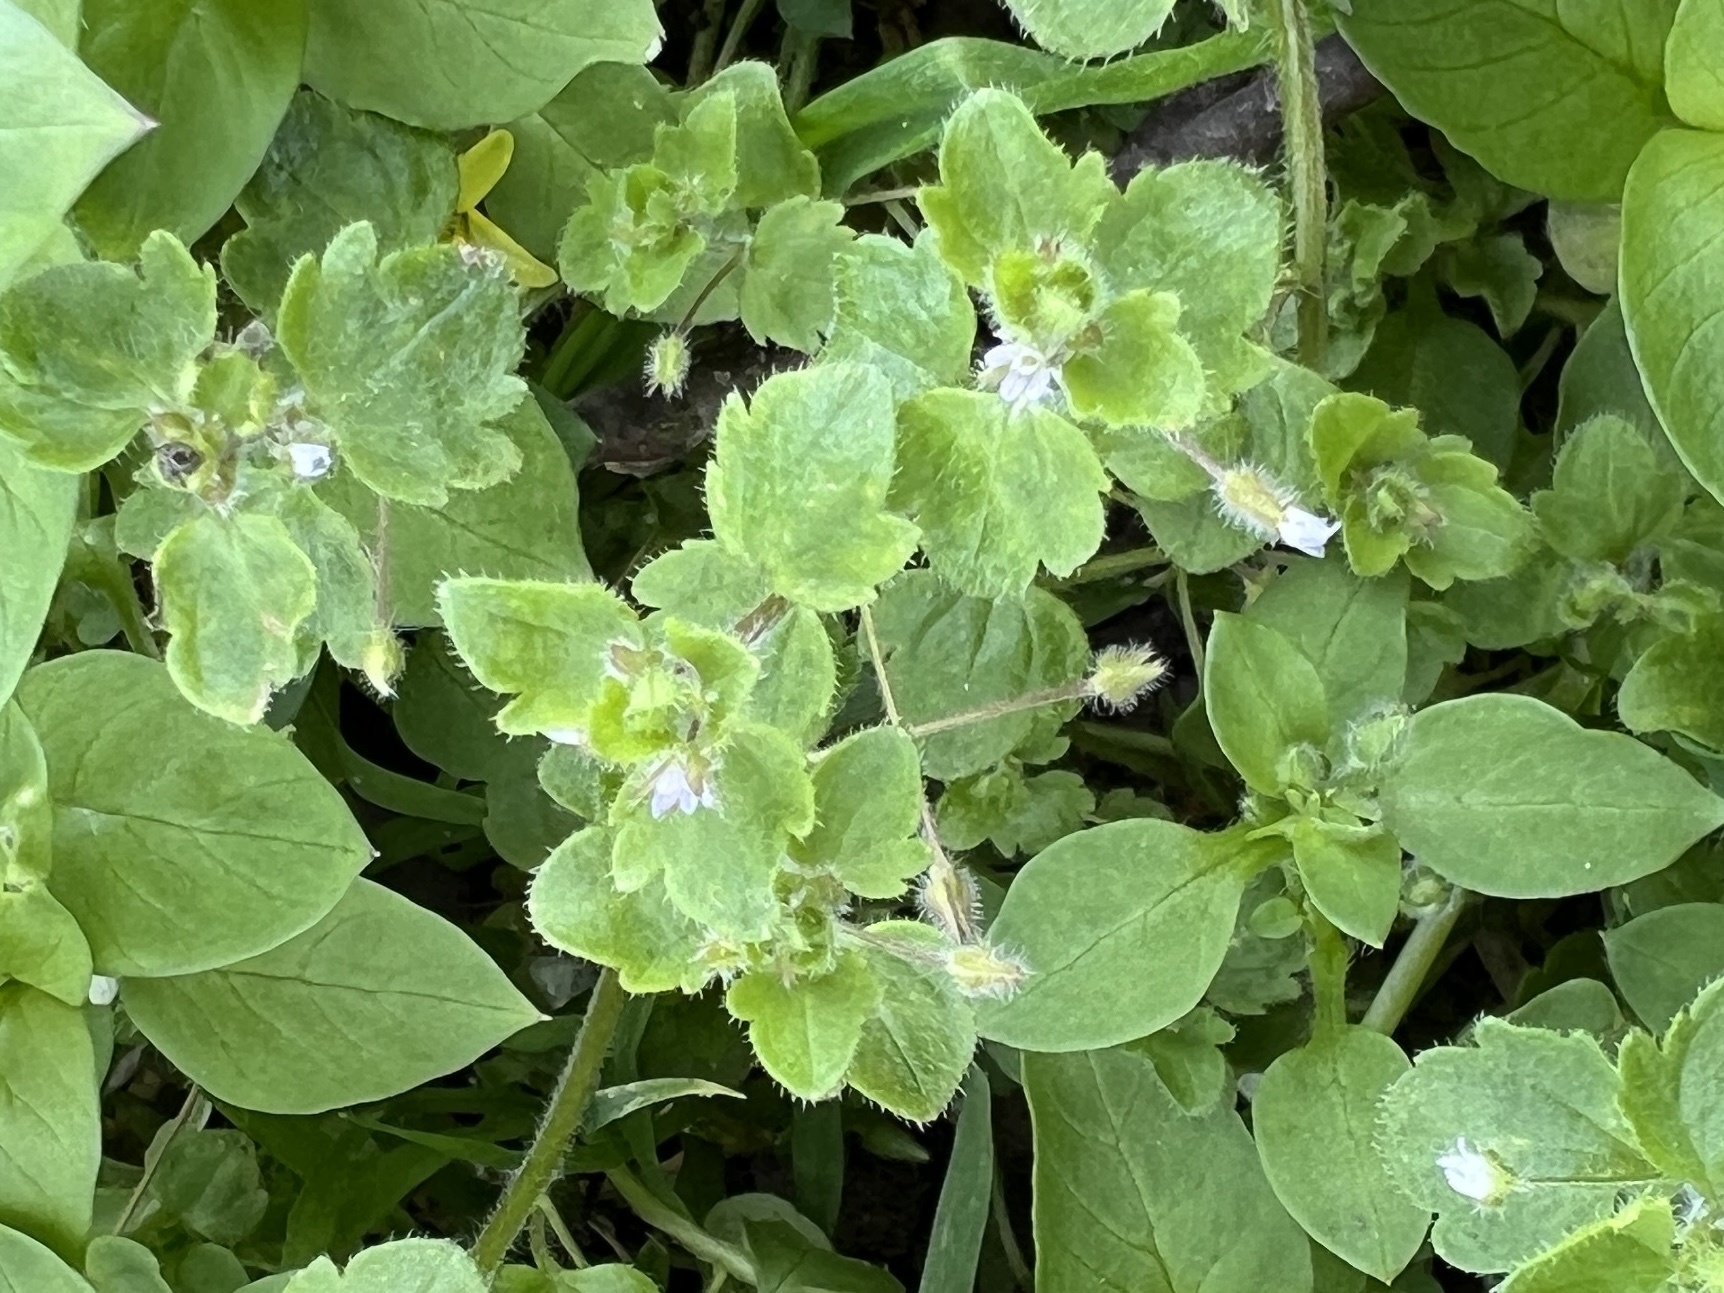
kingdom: Plantae
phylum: Tracheophyta
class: Magnoliopsida
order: Lamiales
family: Plantaginaceae
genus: Veronica
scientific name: Veronica sublobata
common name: False ivy-leaved speedwell
